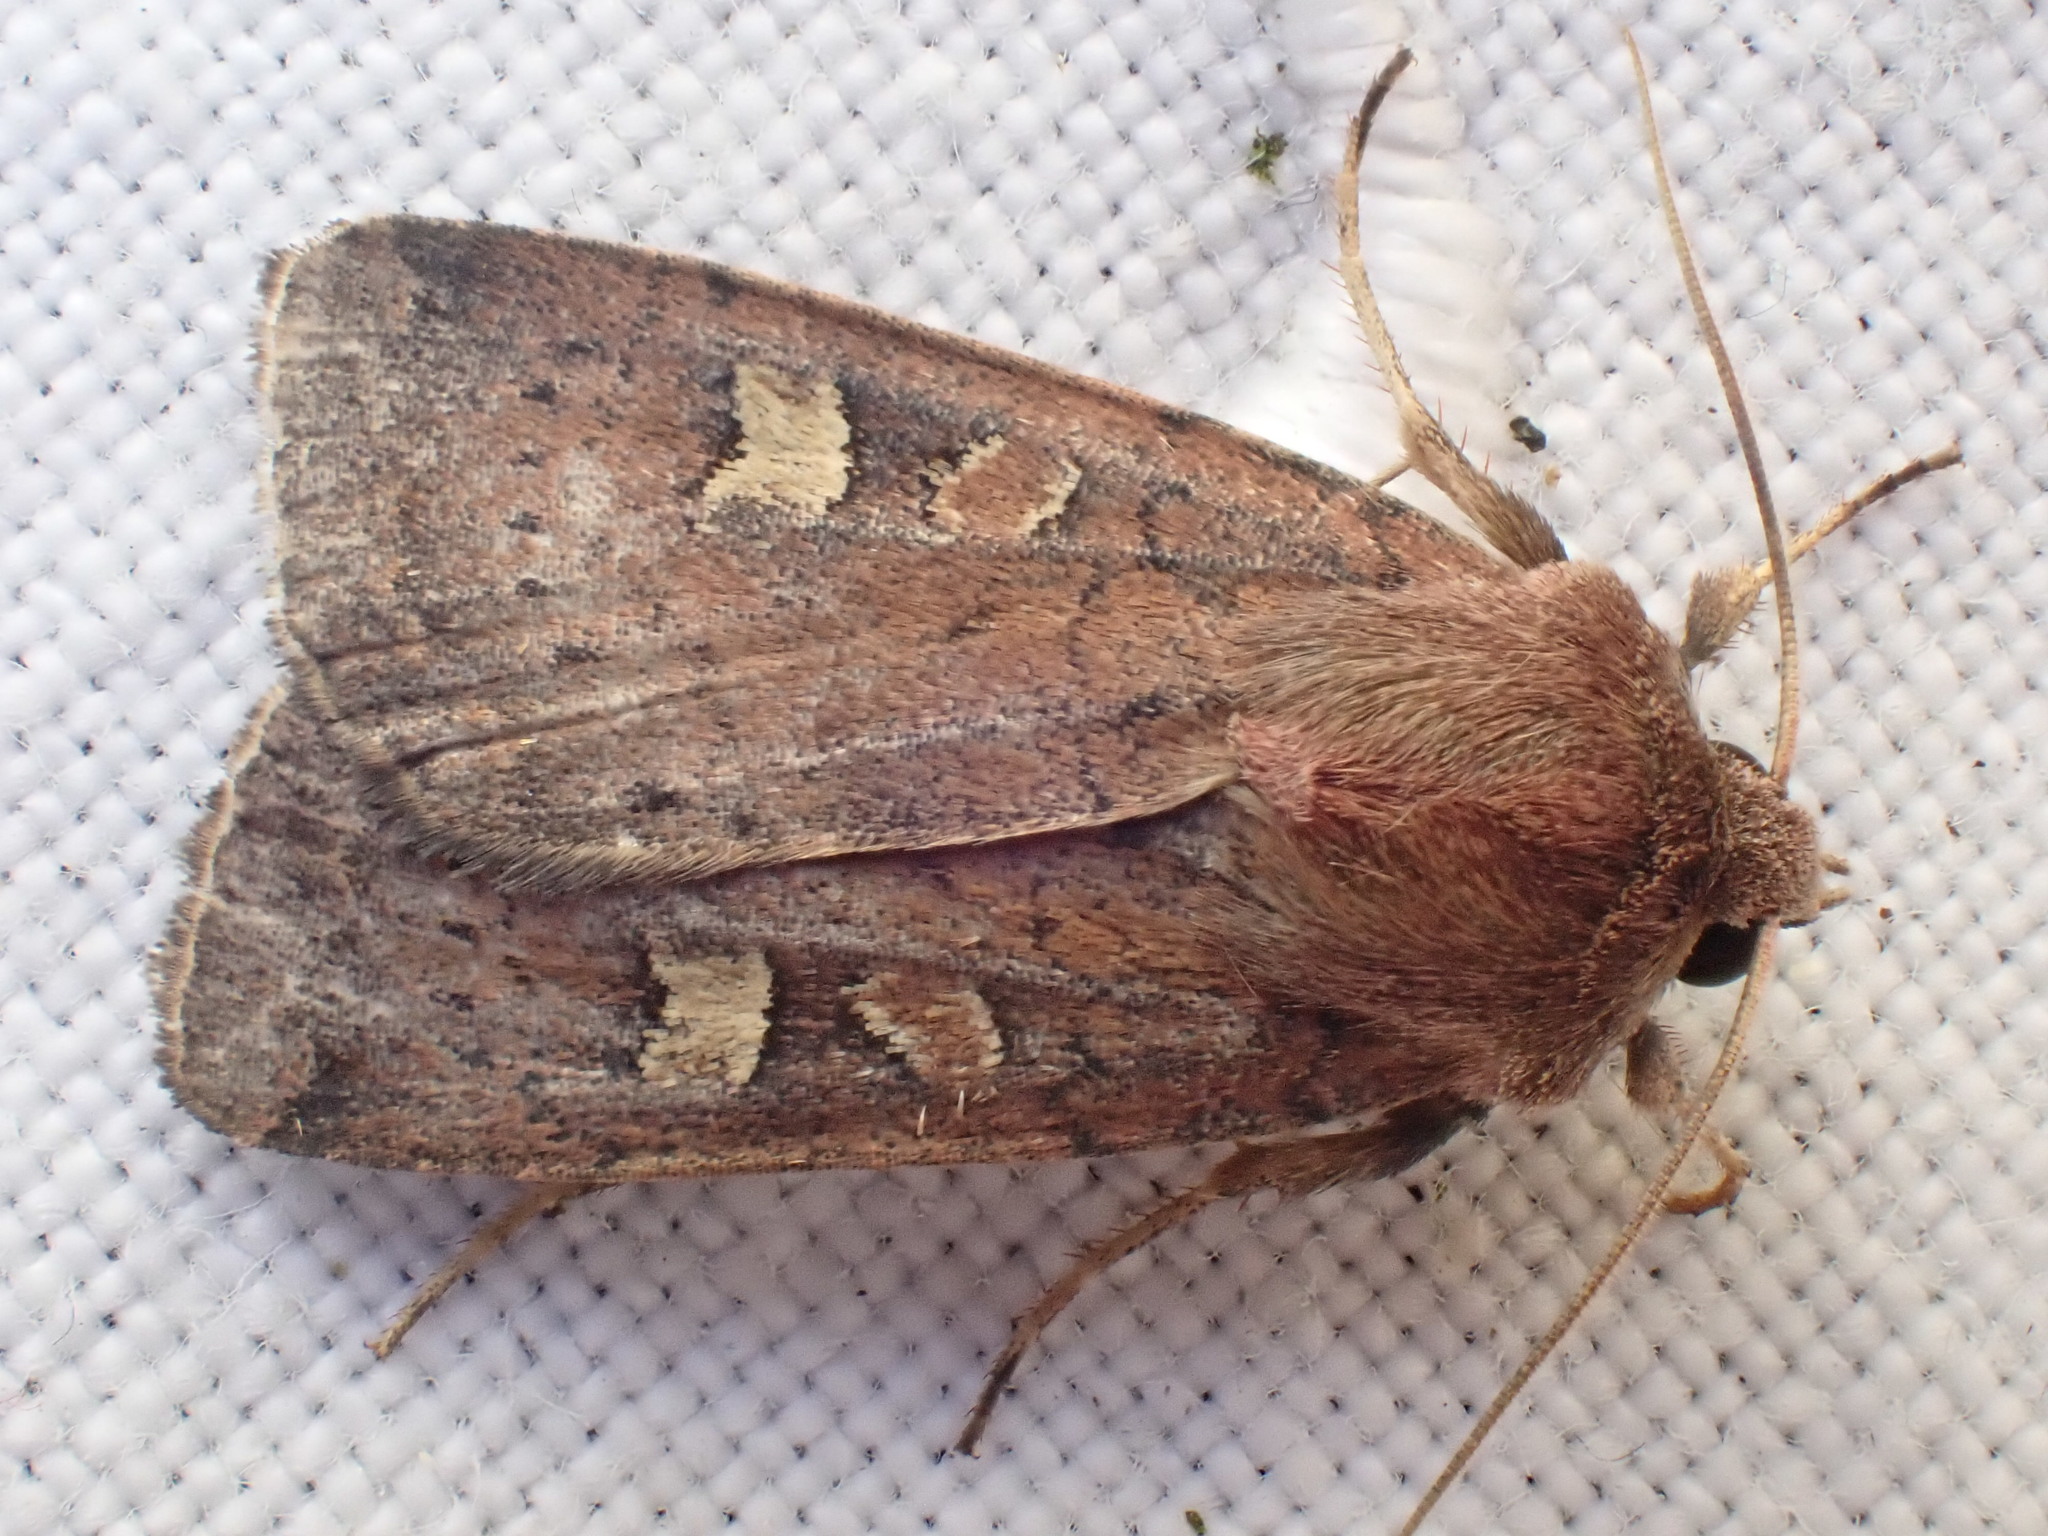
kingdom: Animalia
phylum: Arthropoda
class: Insecta
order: Lepidoptera
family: Noctuidae
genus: Xestia
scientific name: Xestia xanthographa
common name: Square-spot rustic
